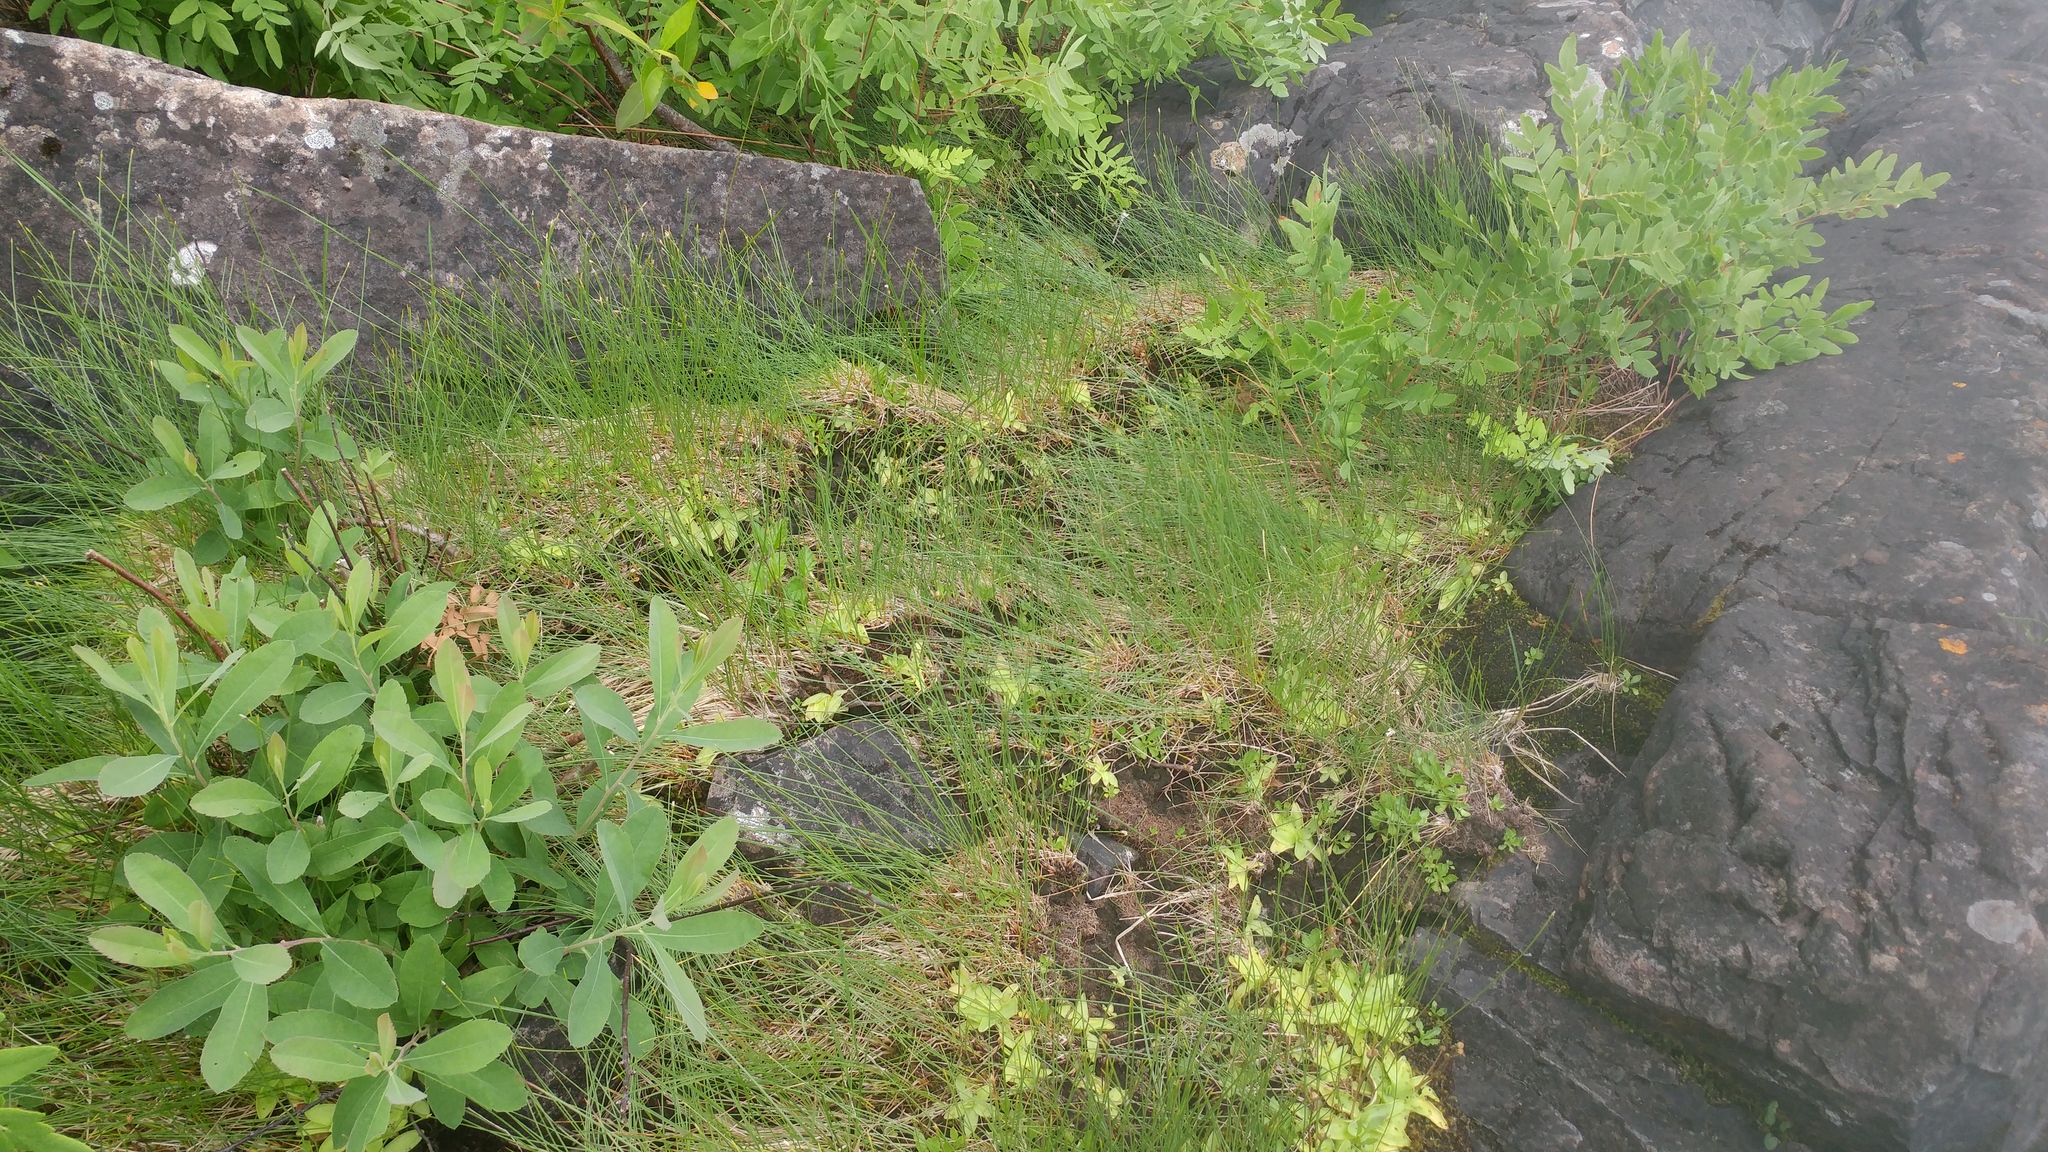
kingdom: Plantae
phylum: Tracheophyta
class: Magnoliopsida
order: Lamiales
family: Lentibulariaceae
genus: Pinguicula
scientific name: Pinguicula vulgaris
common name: Common butterwort
